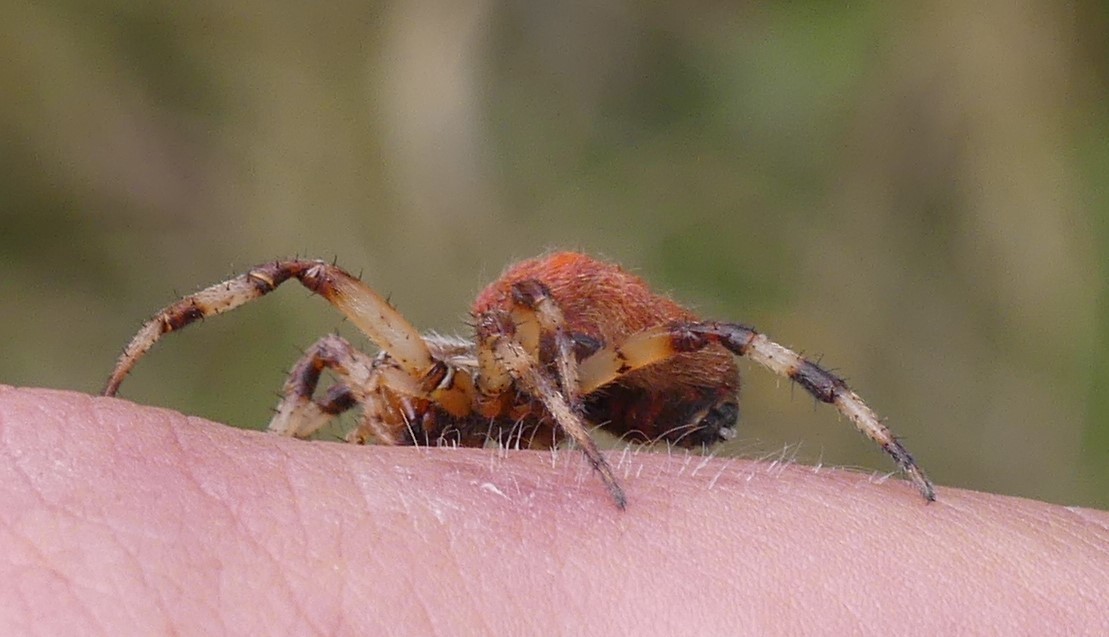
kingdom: Animalia
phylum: Arthropoda
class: Arachnida
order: Araneae
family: Araneidae
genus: Araneus
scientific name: Araneus quadratus
